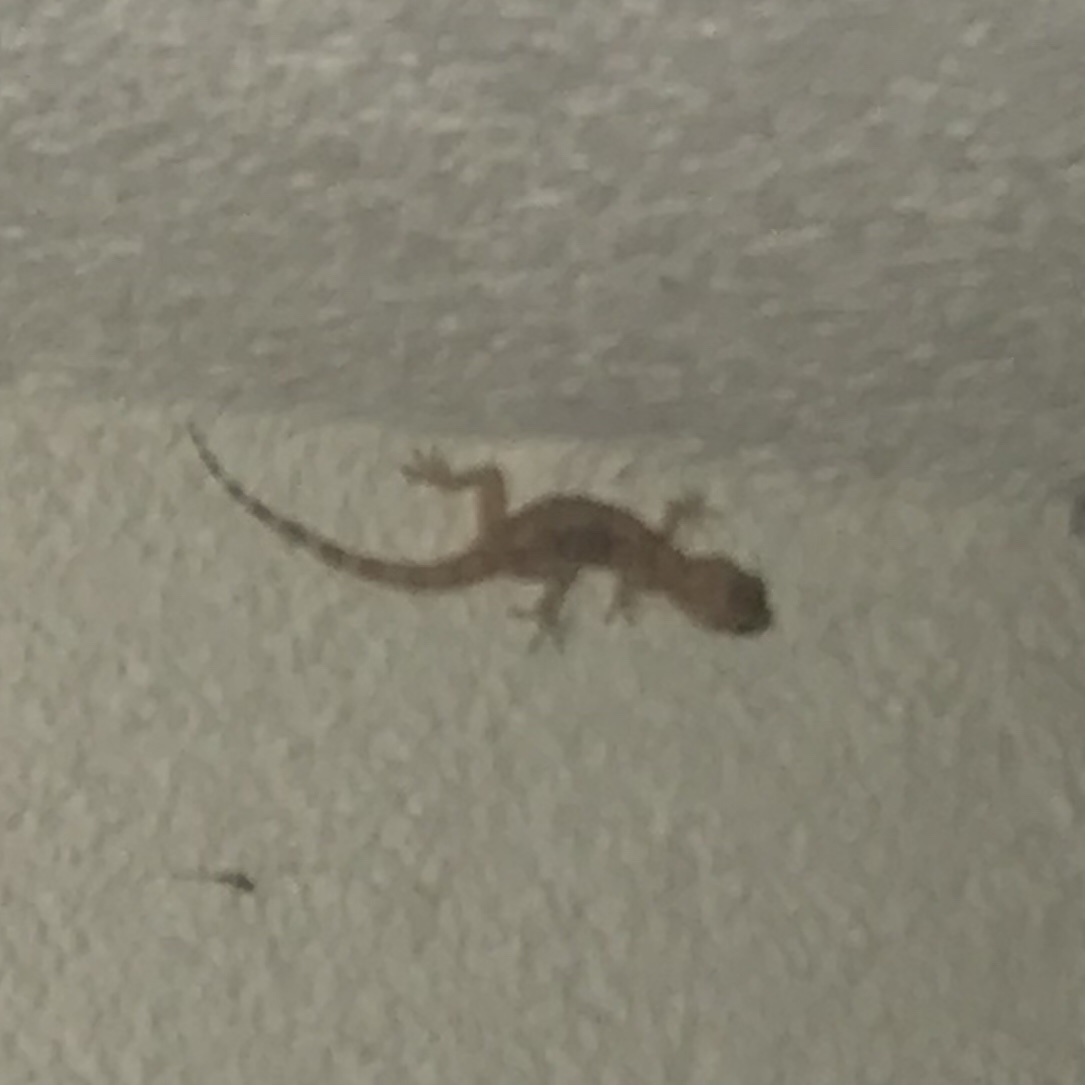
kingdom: Animalia
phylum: Chordata
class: Squamata
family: Gekkonidae
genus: Hemidactylus
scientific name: Hemidactylus turcicus
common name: Turkish gecko
